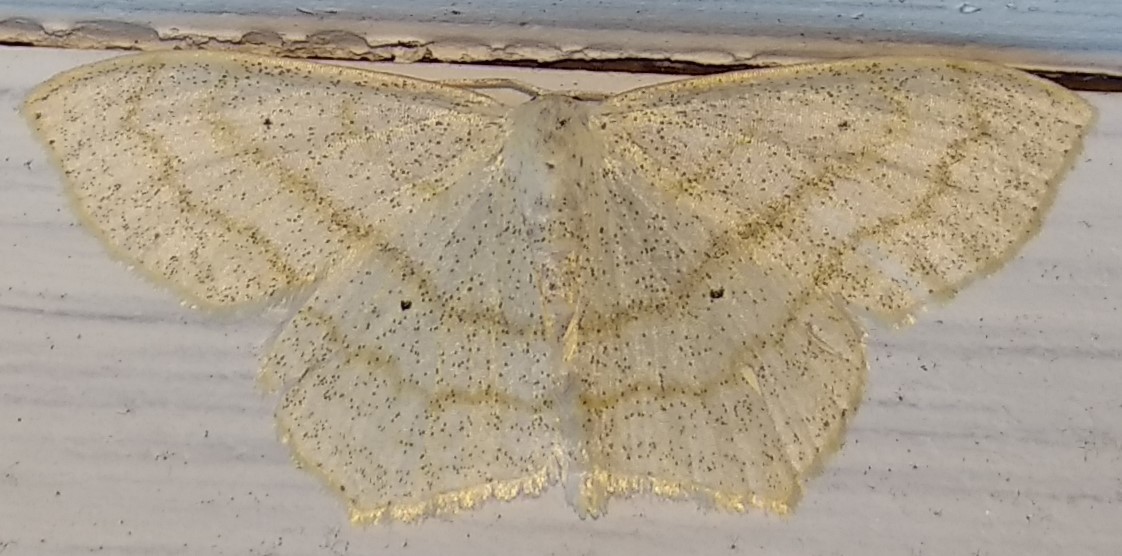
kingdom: Animalia
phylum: Arthropoda
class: Insecta
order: Lepidoptera
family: Geometridae
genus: Scopula
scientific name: Scopula limboundata
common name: Large lace border
